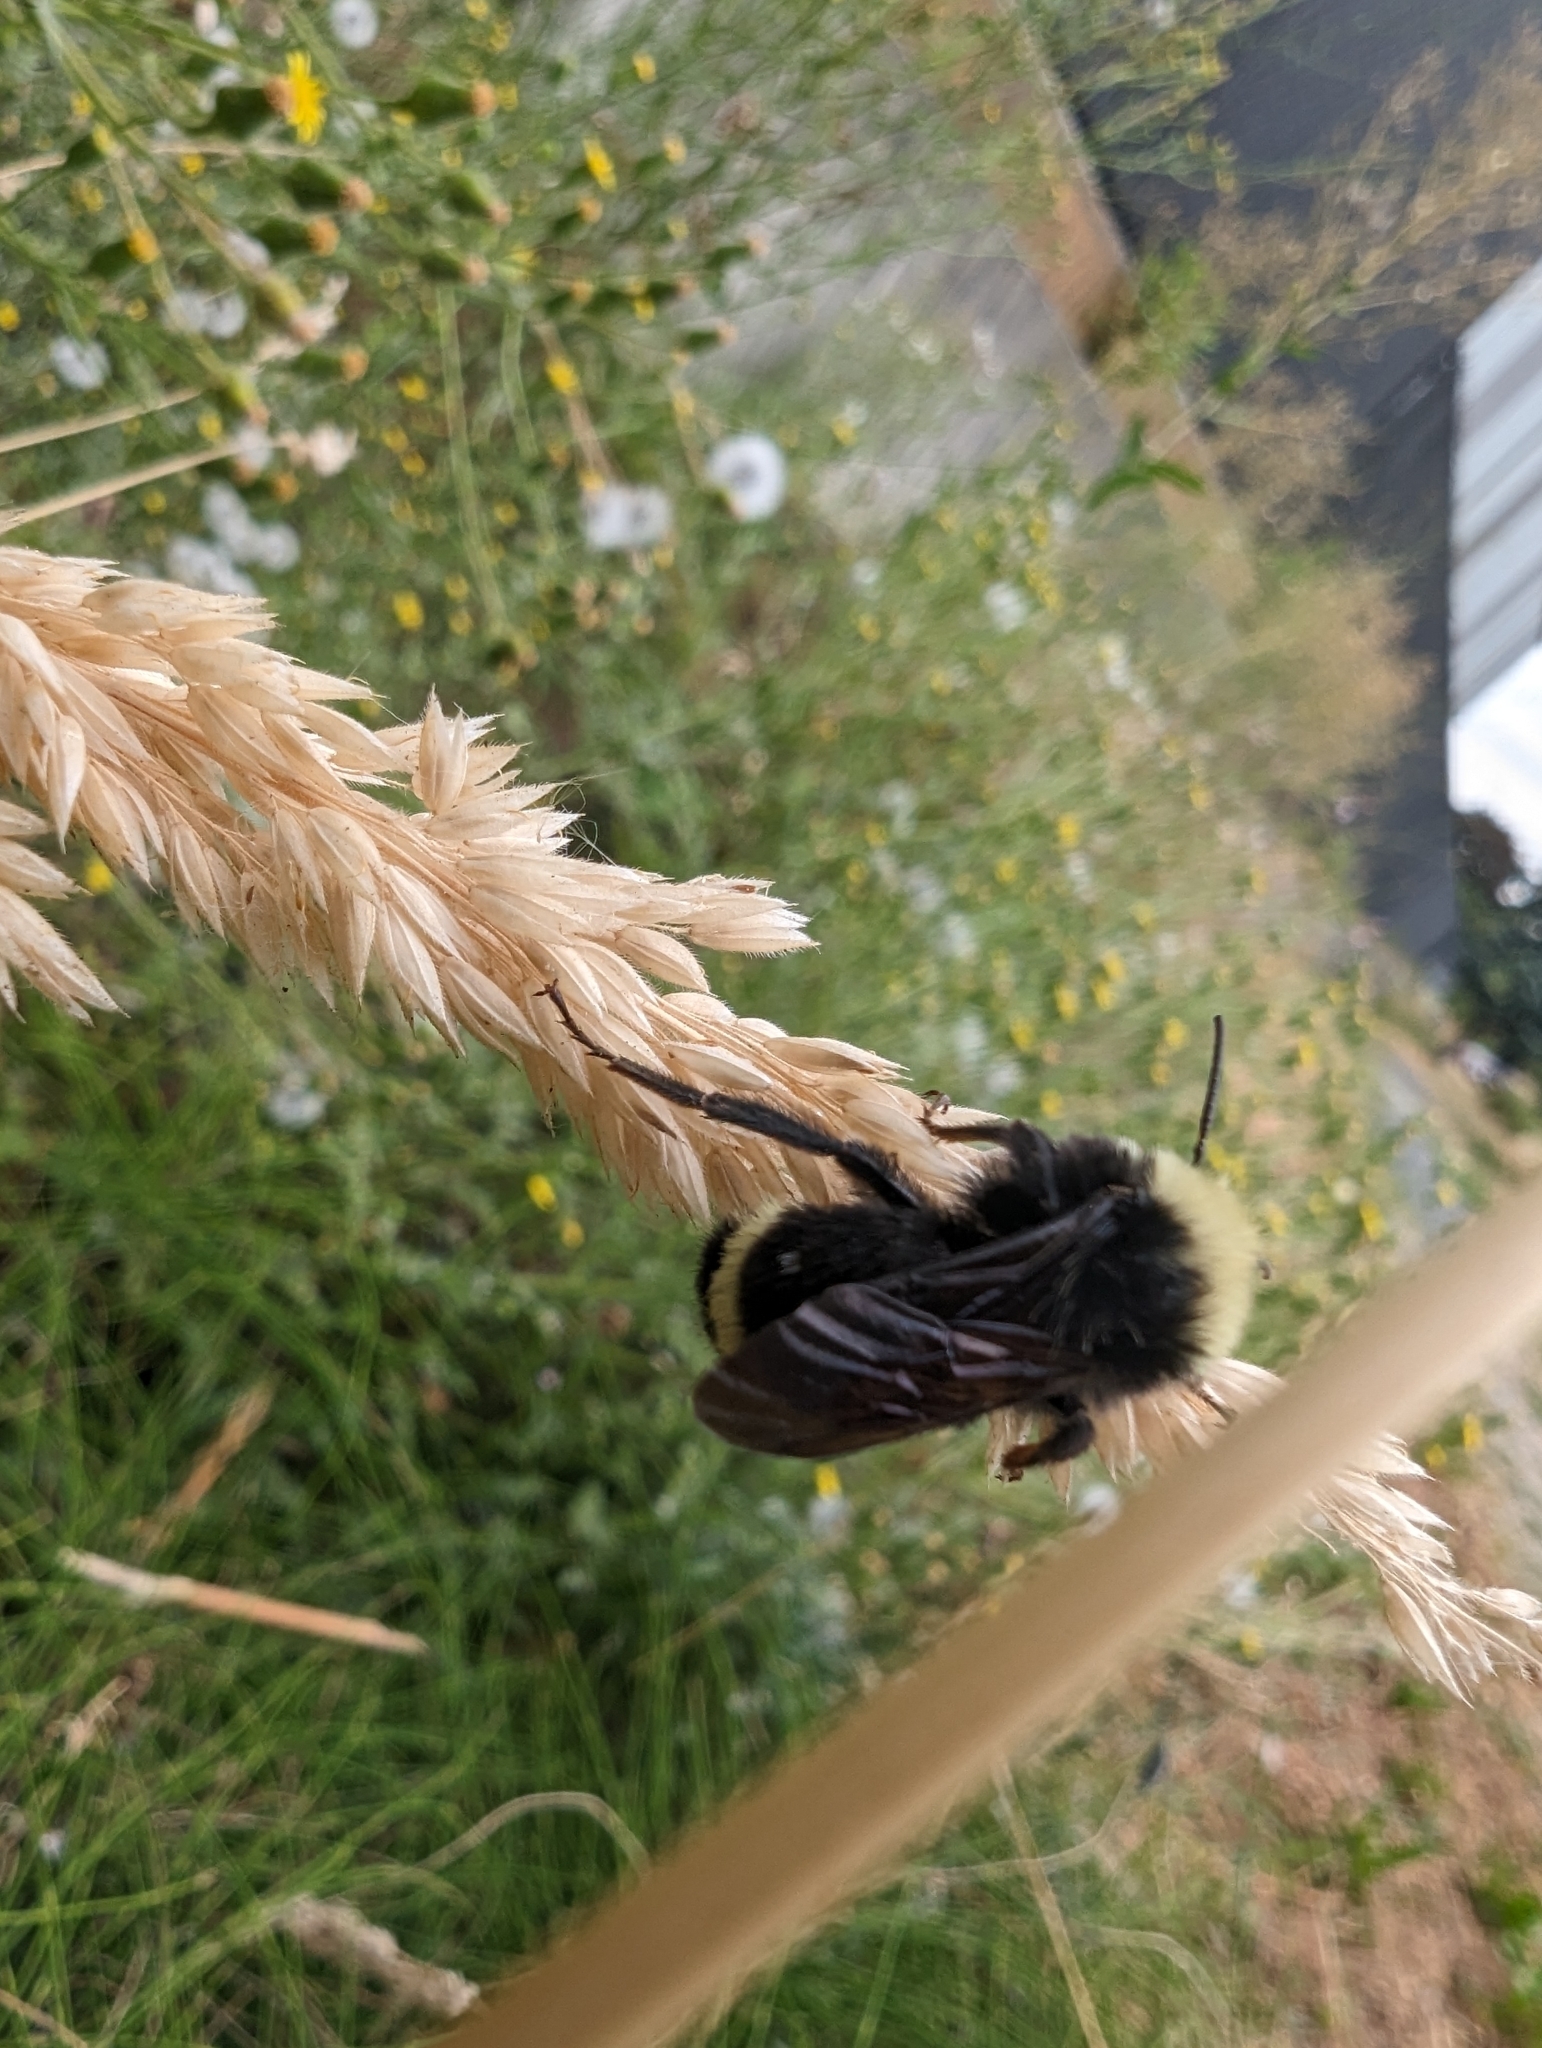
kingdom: Animalia
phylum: Arthropoda
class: Insecta
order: Hymenoptera
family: Apidae
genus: Bombus
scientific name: Bombus vosnesenskii
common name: Vosnesensky bumble bee
